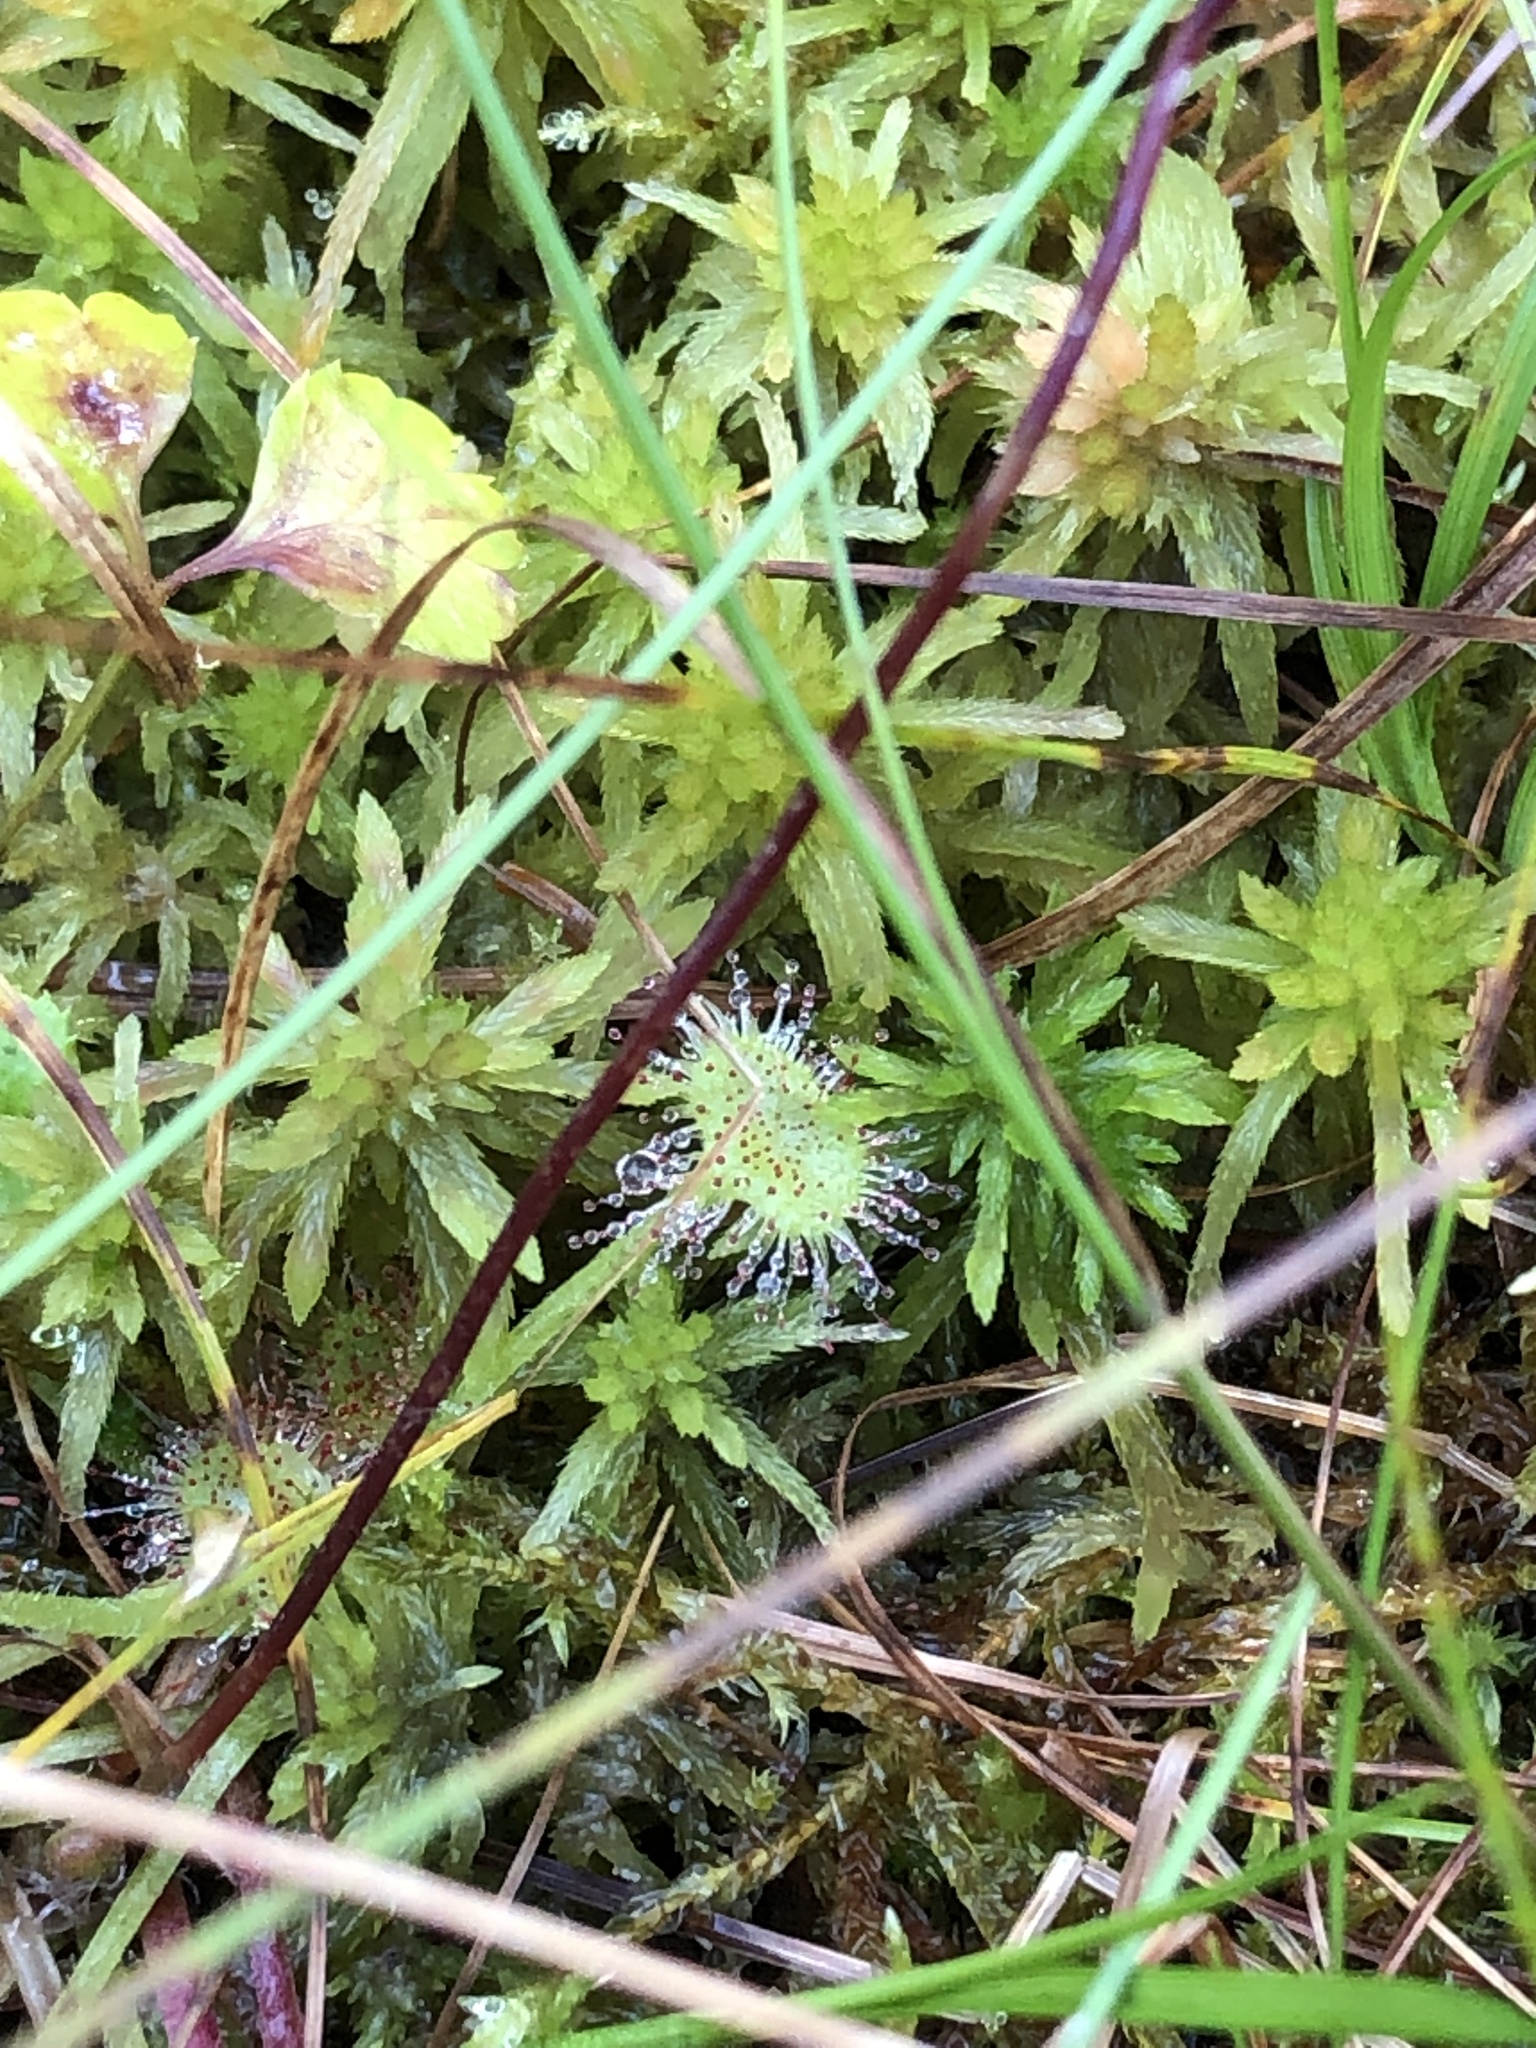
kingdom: Plantae
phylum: Tracheophyta
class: Magnoliopsida
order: Caryophyllales
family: Droseraceae
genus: Drosera
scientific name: Drosera rotundifolia
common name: Round-leaved sundew
